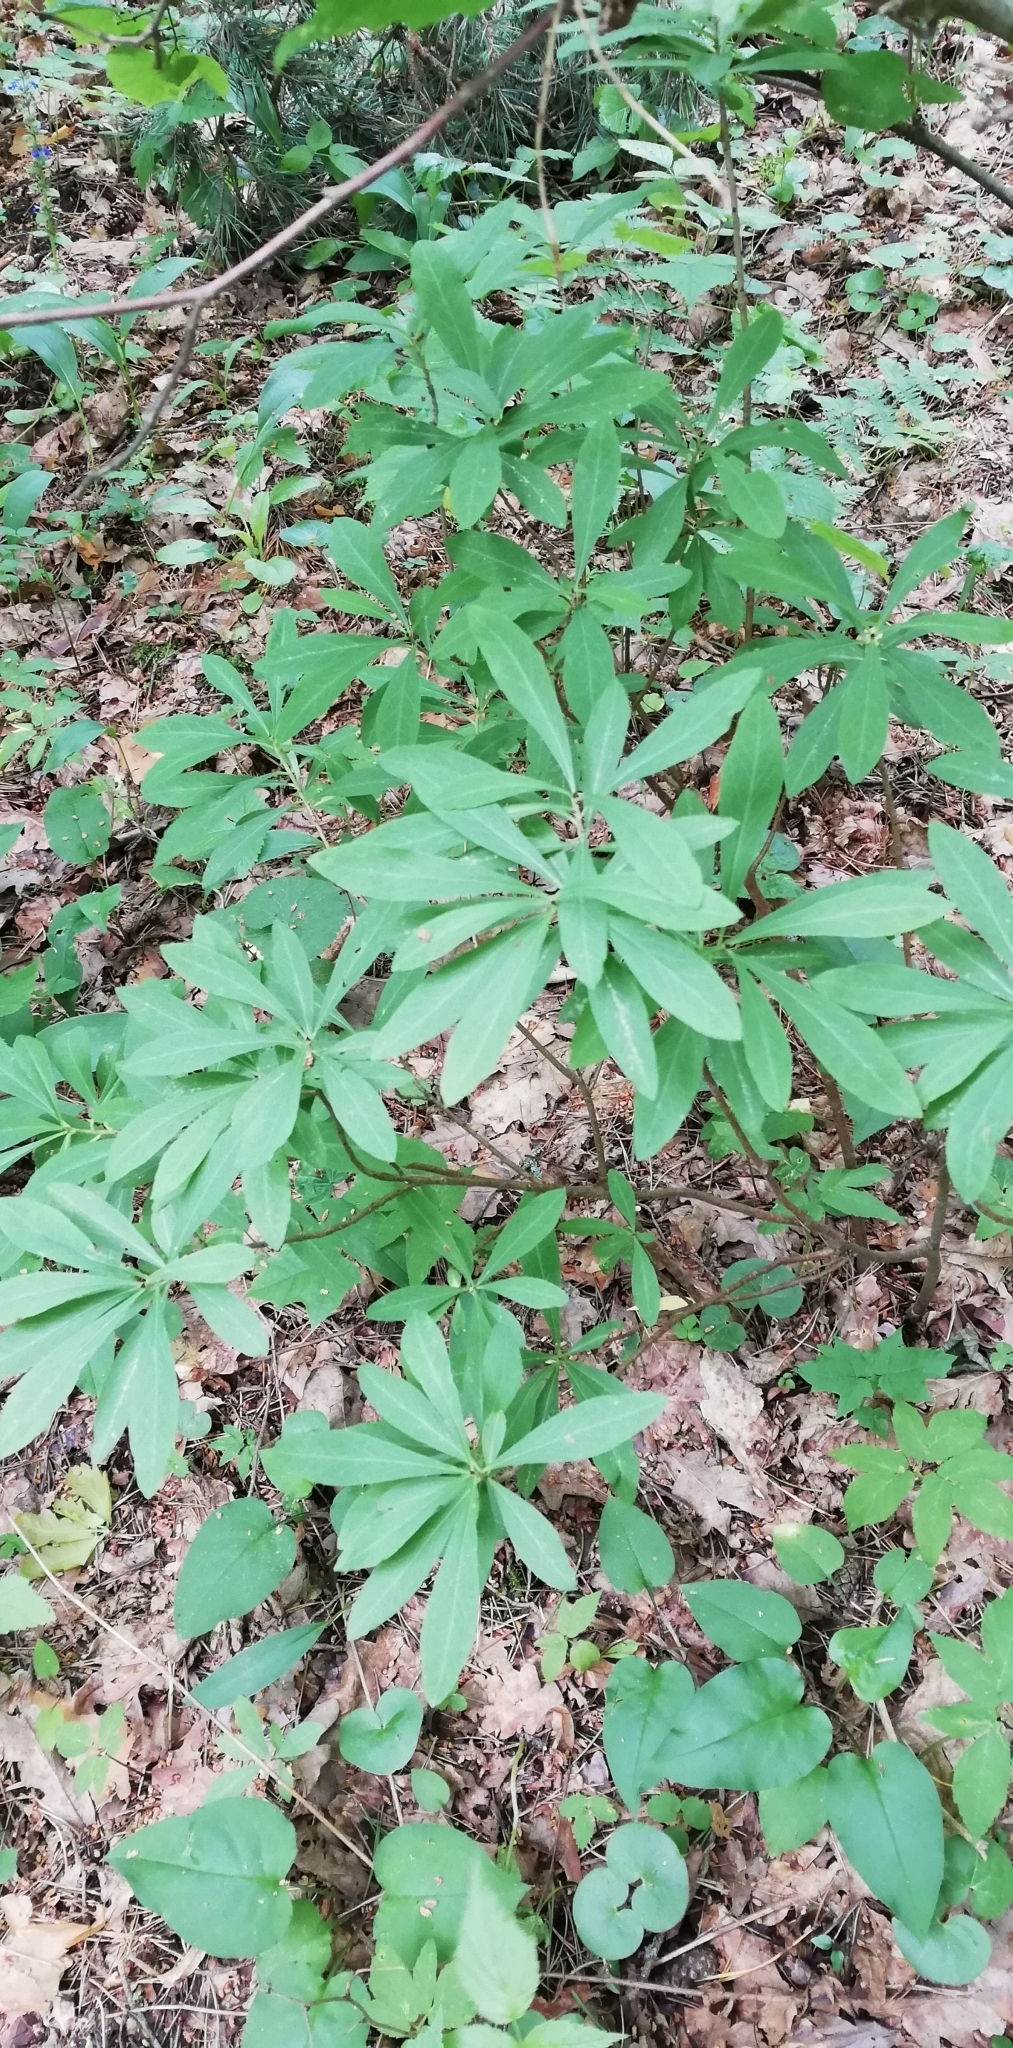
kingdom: Plantae
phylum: Tracheophyta
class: Magnoliopsida
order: Malvales
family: Thymelaeaceae
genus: Daphne
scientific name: Daphne mezereum
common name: Mezereon
